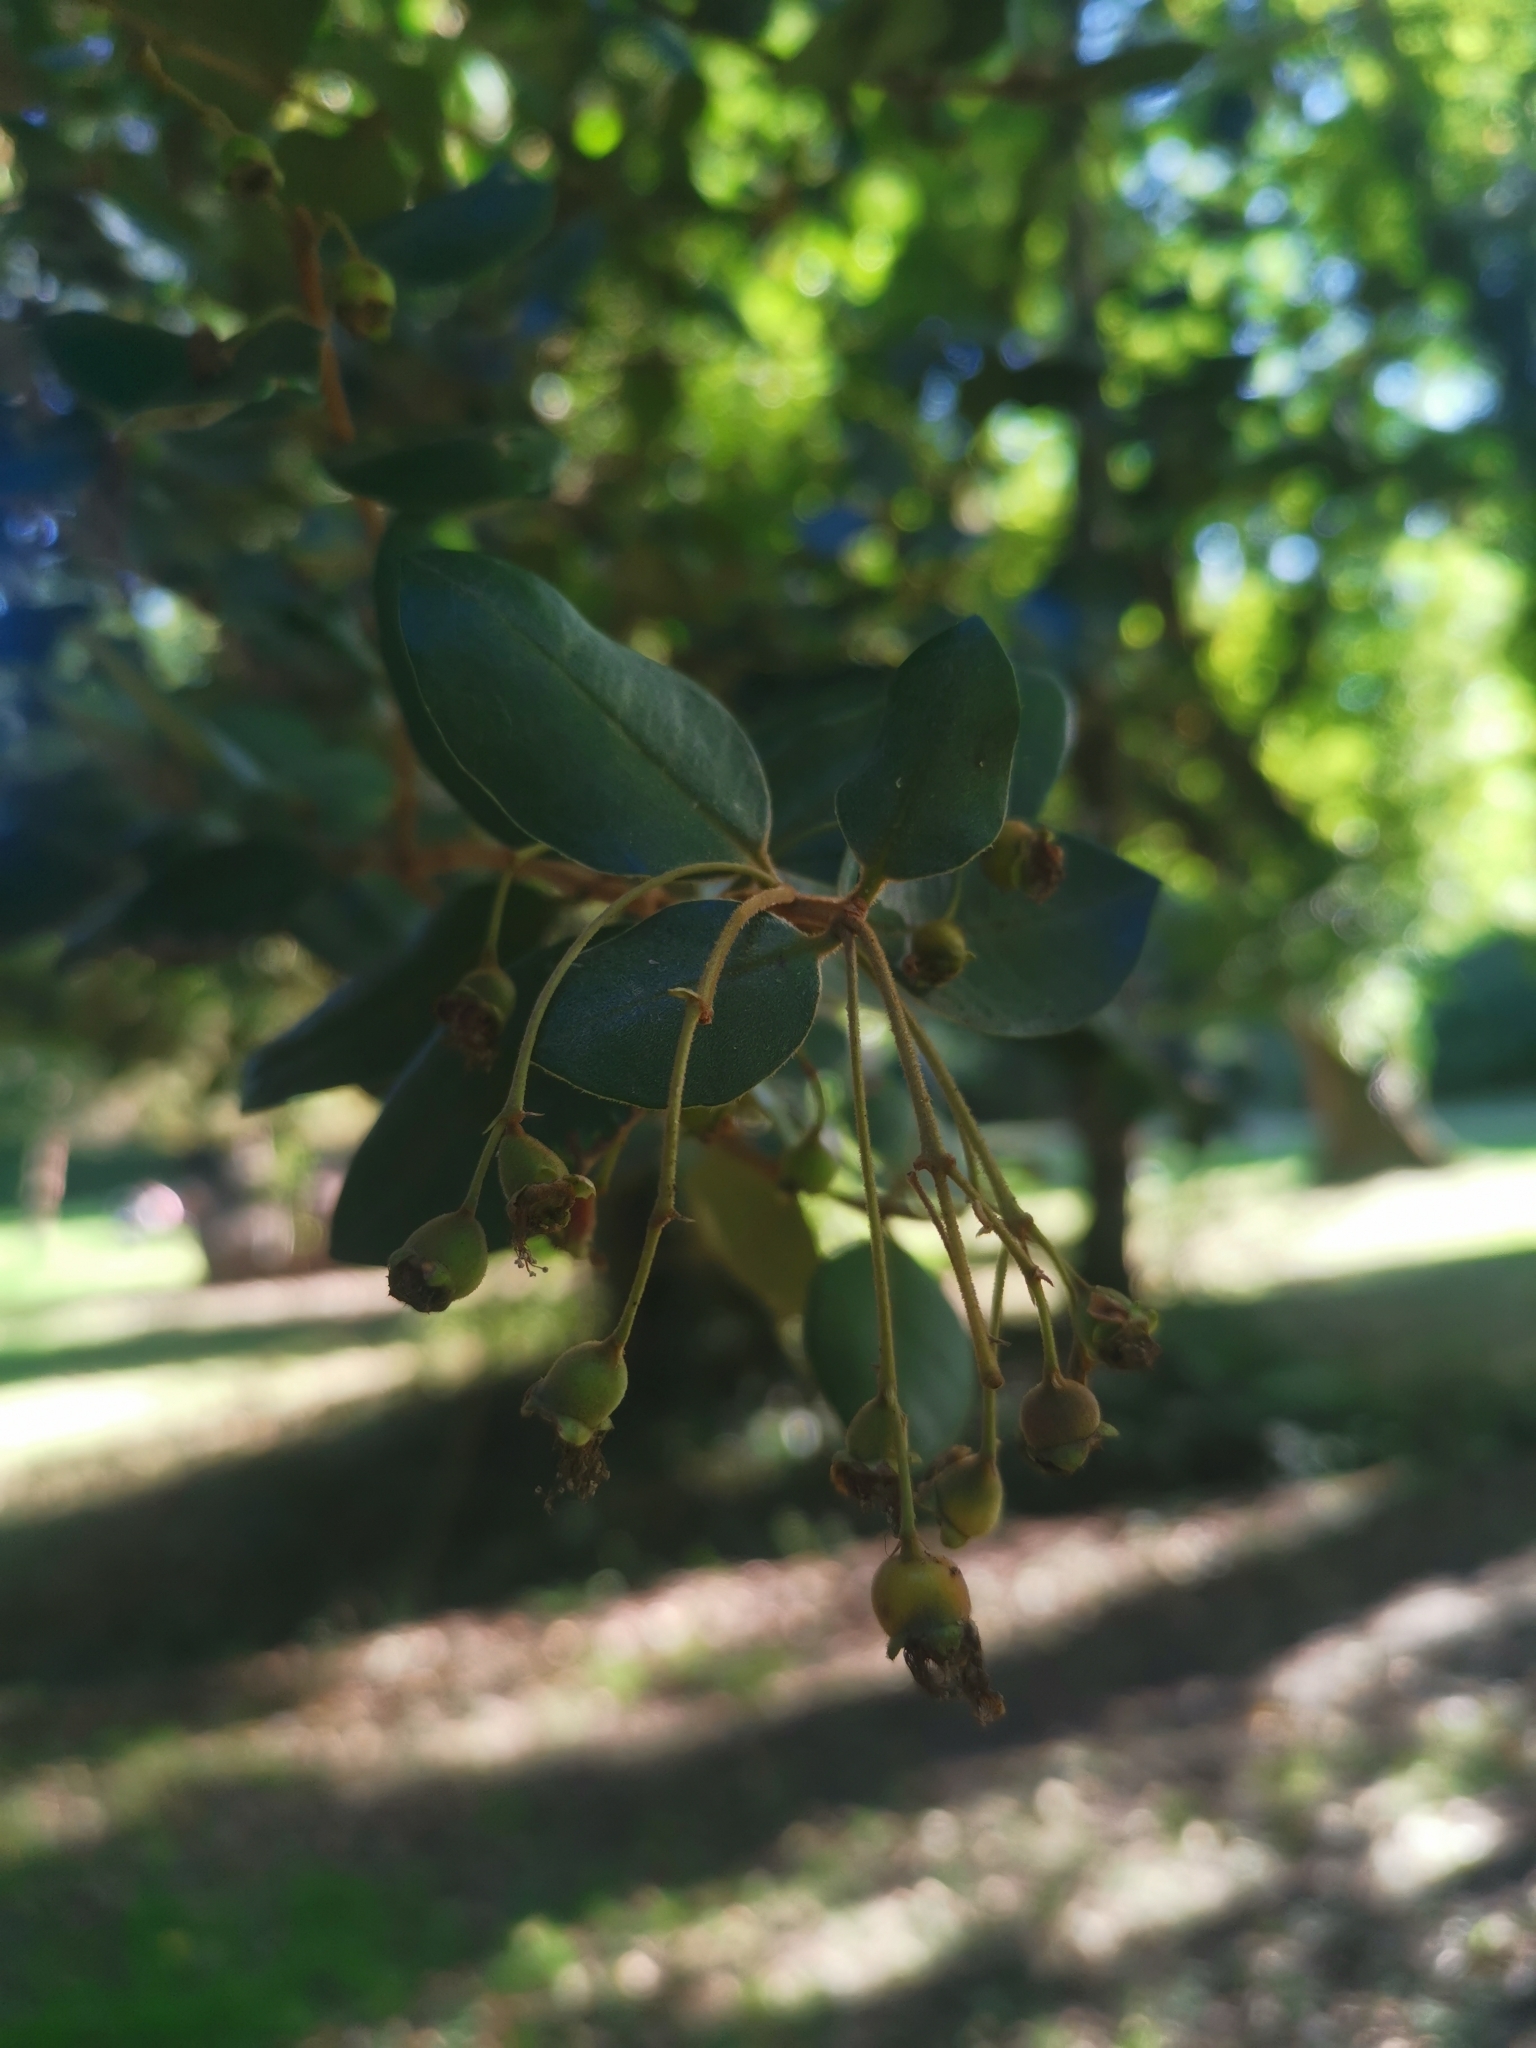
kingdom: Plantae
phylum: Tracheophyta
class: Magnoliopsida
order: Myrtales
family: Myrtaceae
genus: Myrceugenia
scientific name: Myrceugenia exsucca
